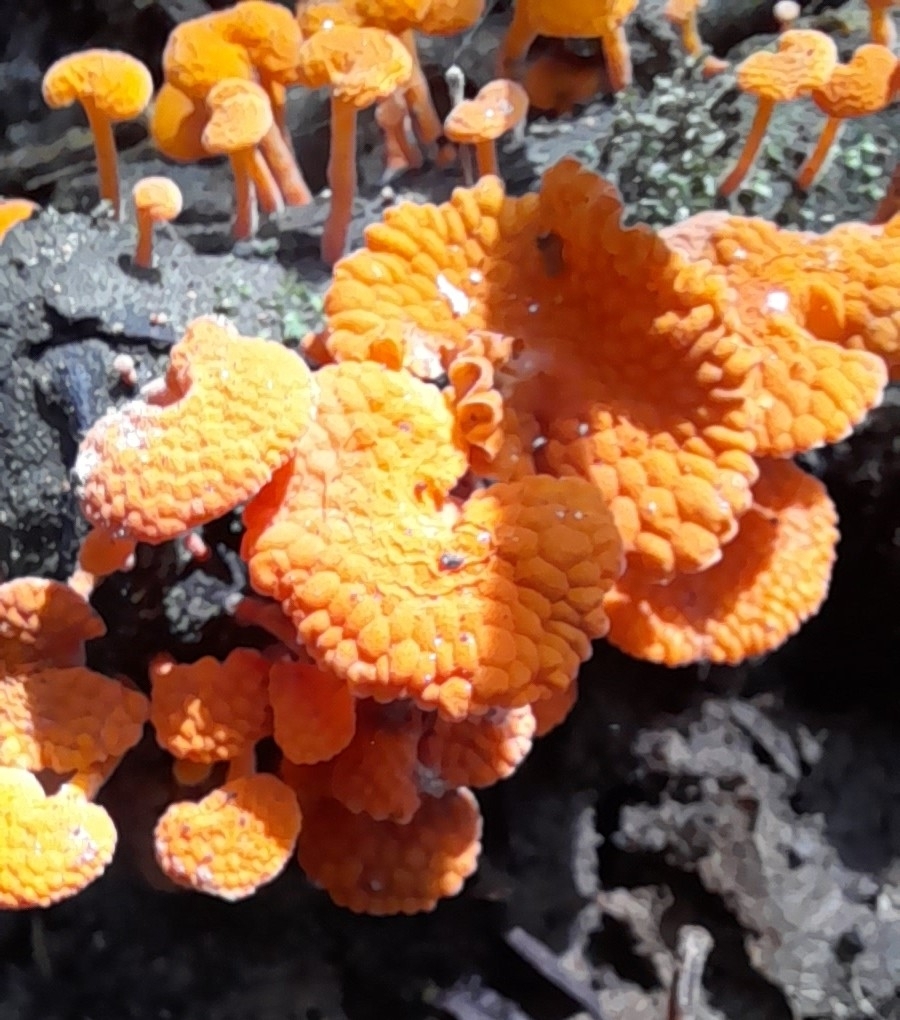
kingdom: Fungi
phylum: Basidiomycota
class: Agaricomycetes
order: Agaricales
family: Mycenaceae
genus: Favolaschia
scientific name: Favolaschia claudopus
